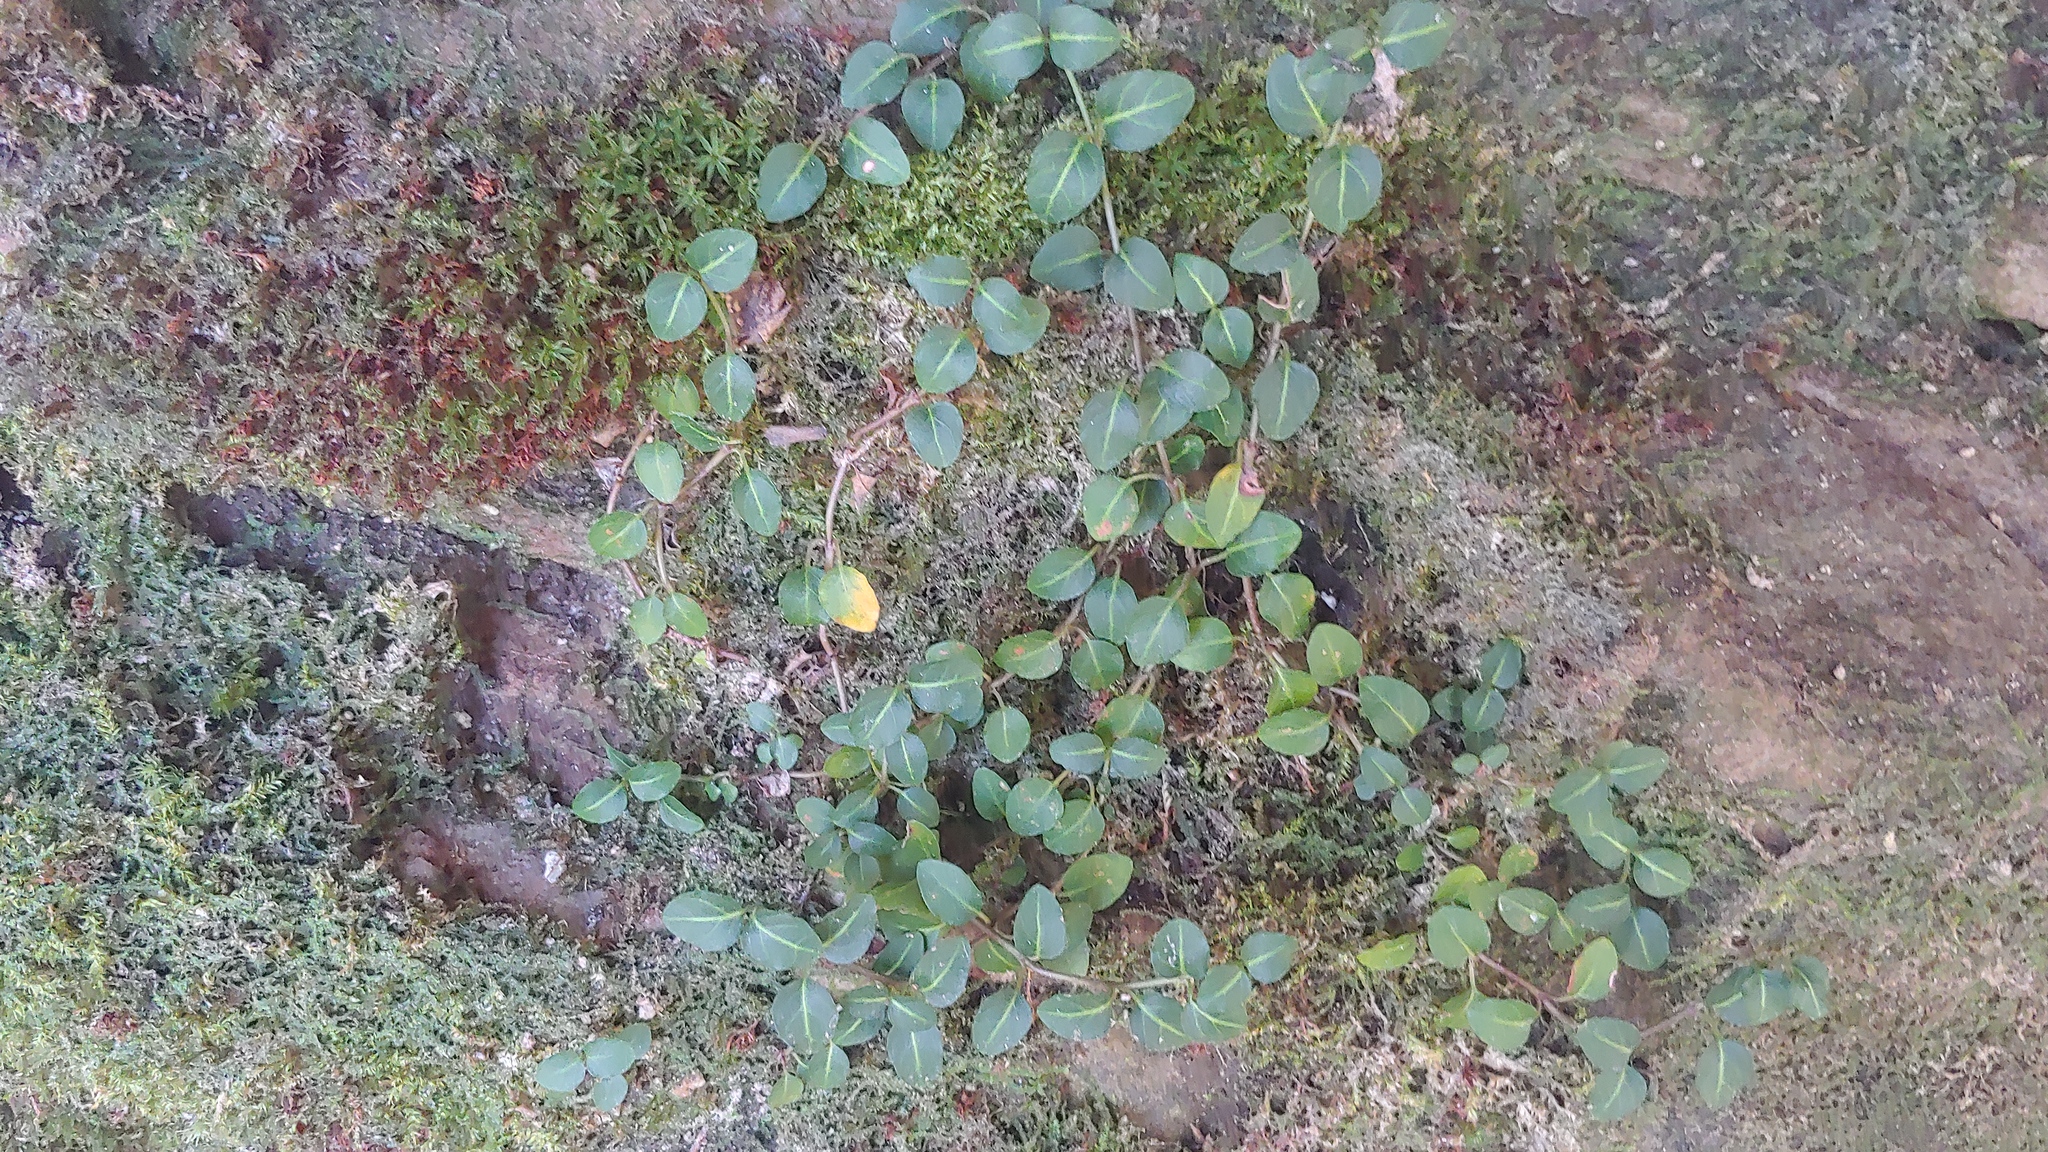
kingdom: Plantae
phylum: Tracheophyta
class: Magnoliopsida
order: Gentianales
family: Rubiaceae
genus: Mitchella
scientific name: Mitchella repens
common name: Partridge-berry
